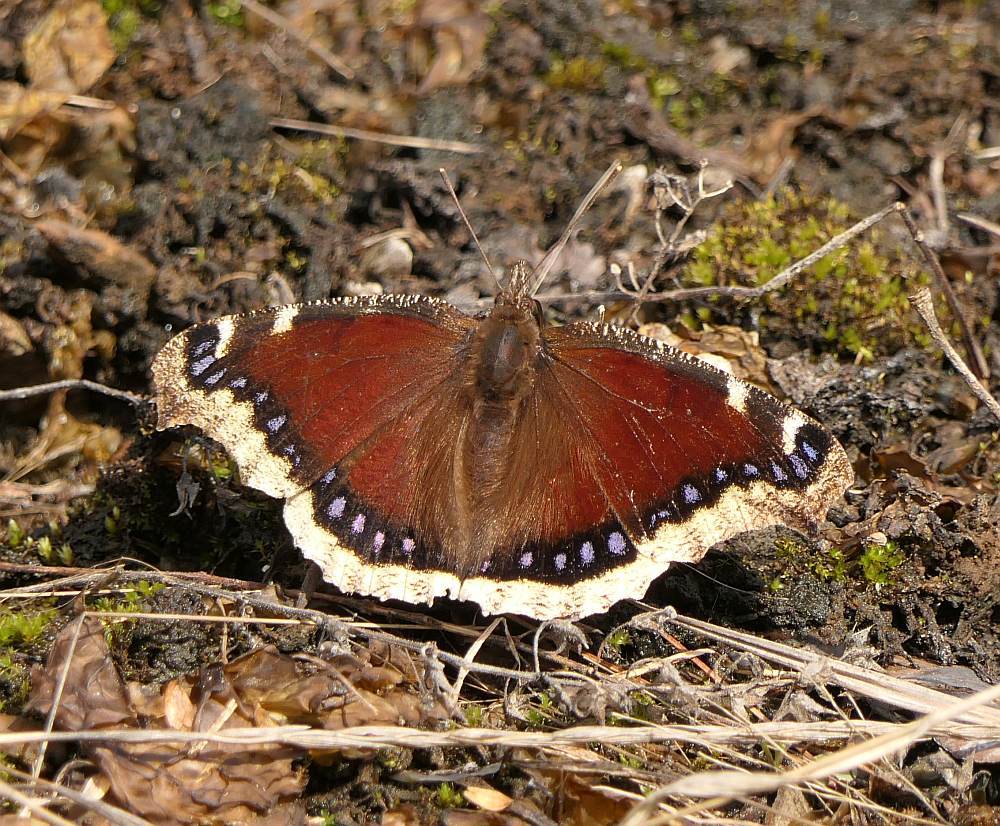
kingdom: Animalia
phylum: Arthropoda
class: Insecta
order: Lepidoptera
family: Nymphalidae
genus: Nymphalis
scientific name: Nymphalis antiopa
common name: Camberwell beauty
